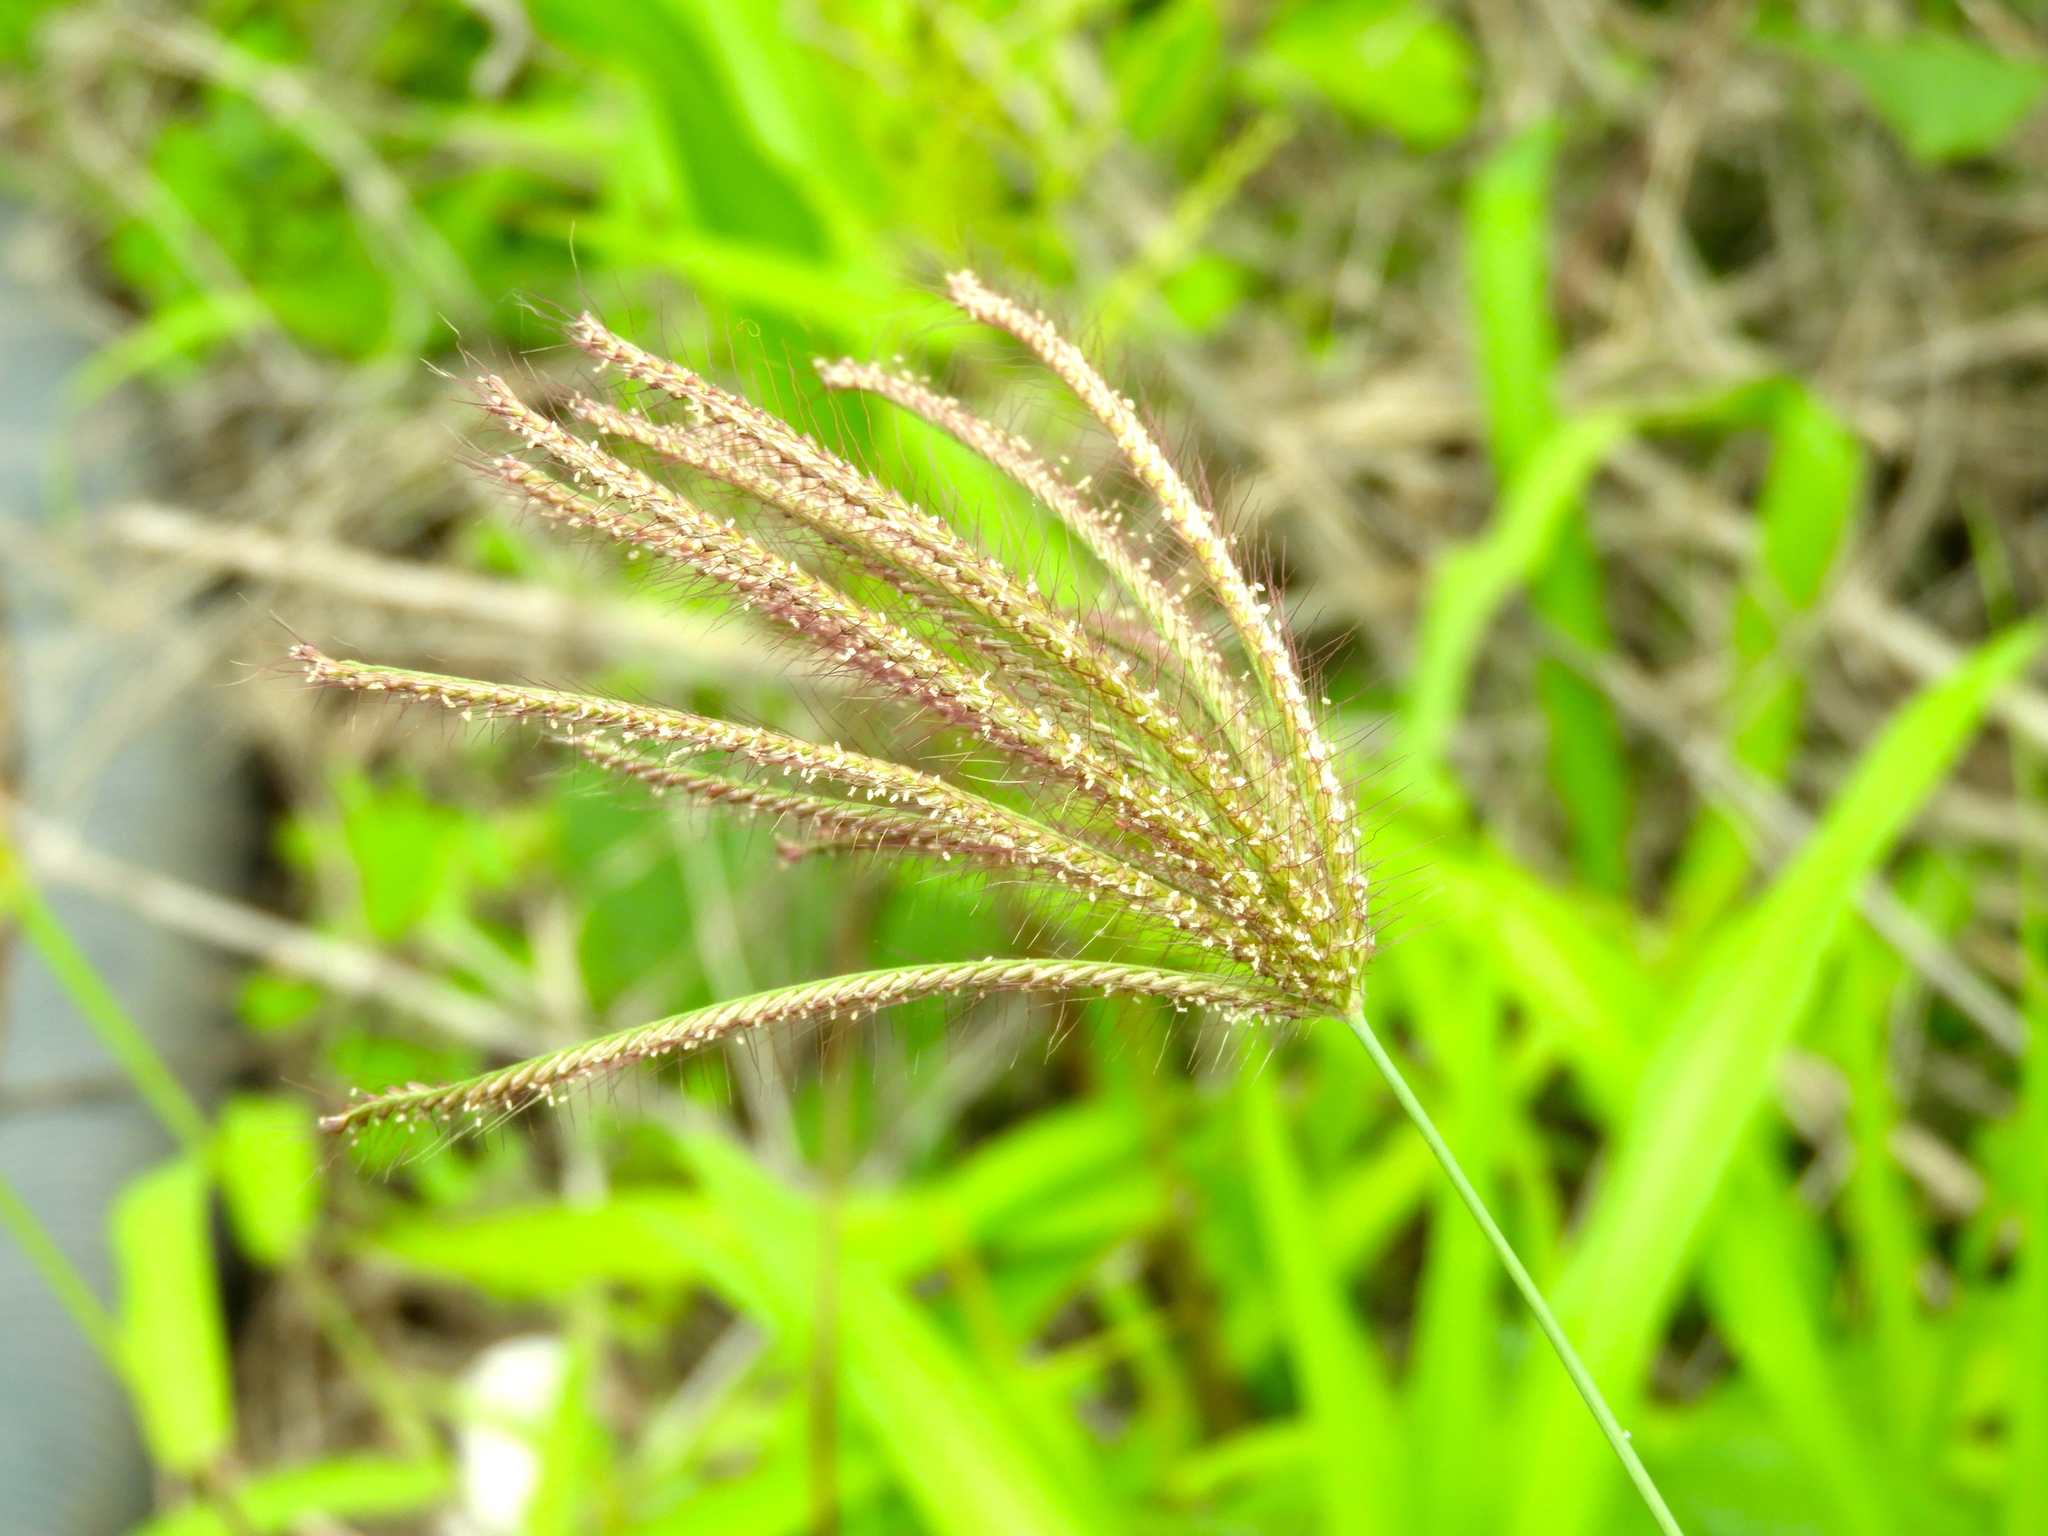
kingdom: Plantae
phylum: Tracheophyta
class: Liliopsida
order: Poales
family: Poaceae
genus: Chloris
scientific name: Chloris virgata
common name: Feathery rhodes-grass
